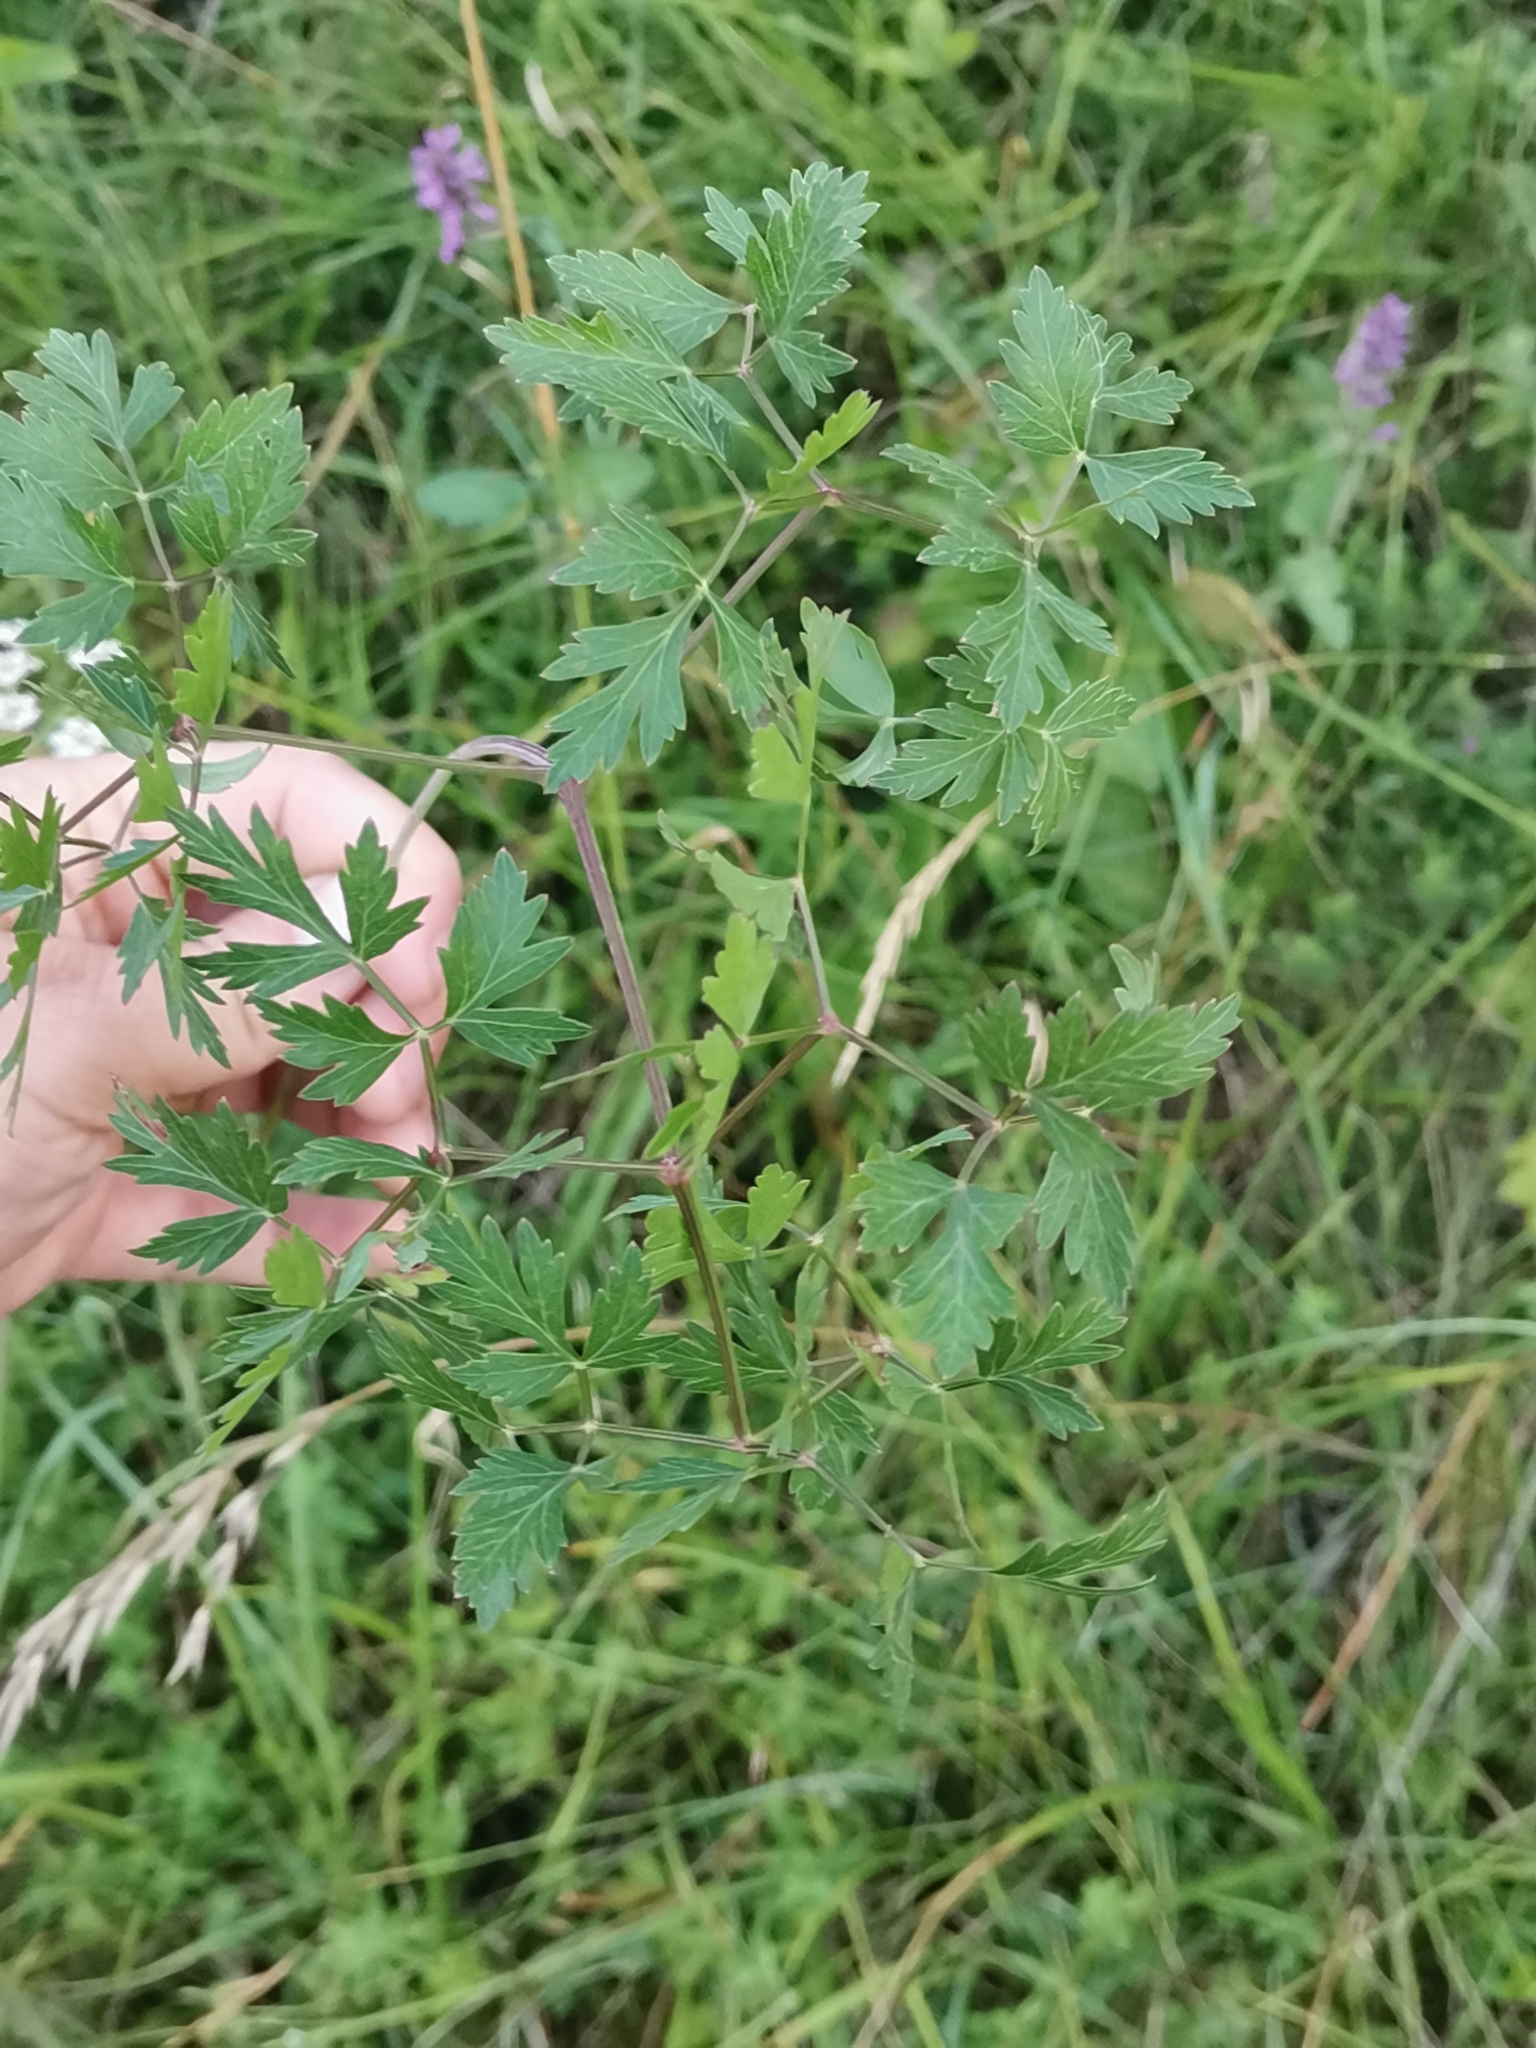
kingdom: Plantae
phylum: Tracheophyta
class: Magnoliopsida
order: Apiales
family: Apiaceae
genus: Oreoselinum
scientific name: Oreoselinum nigrum
